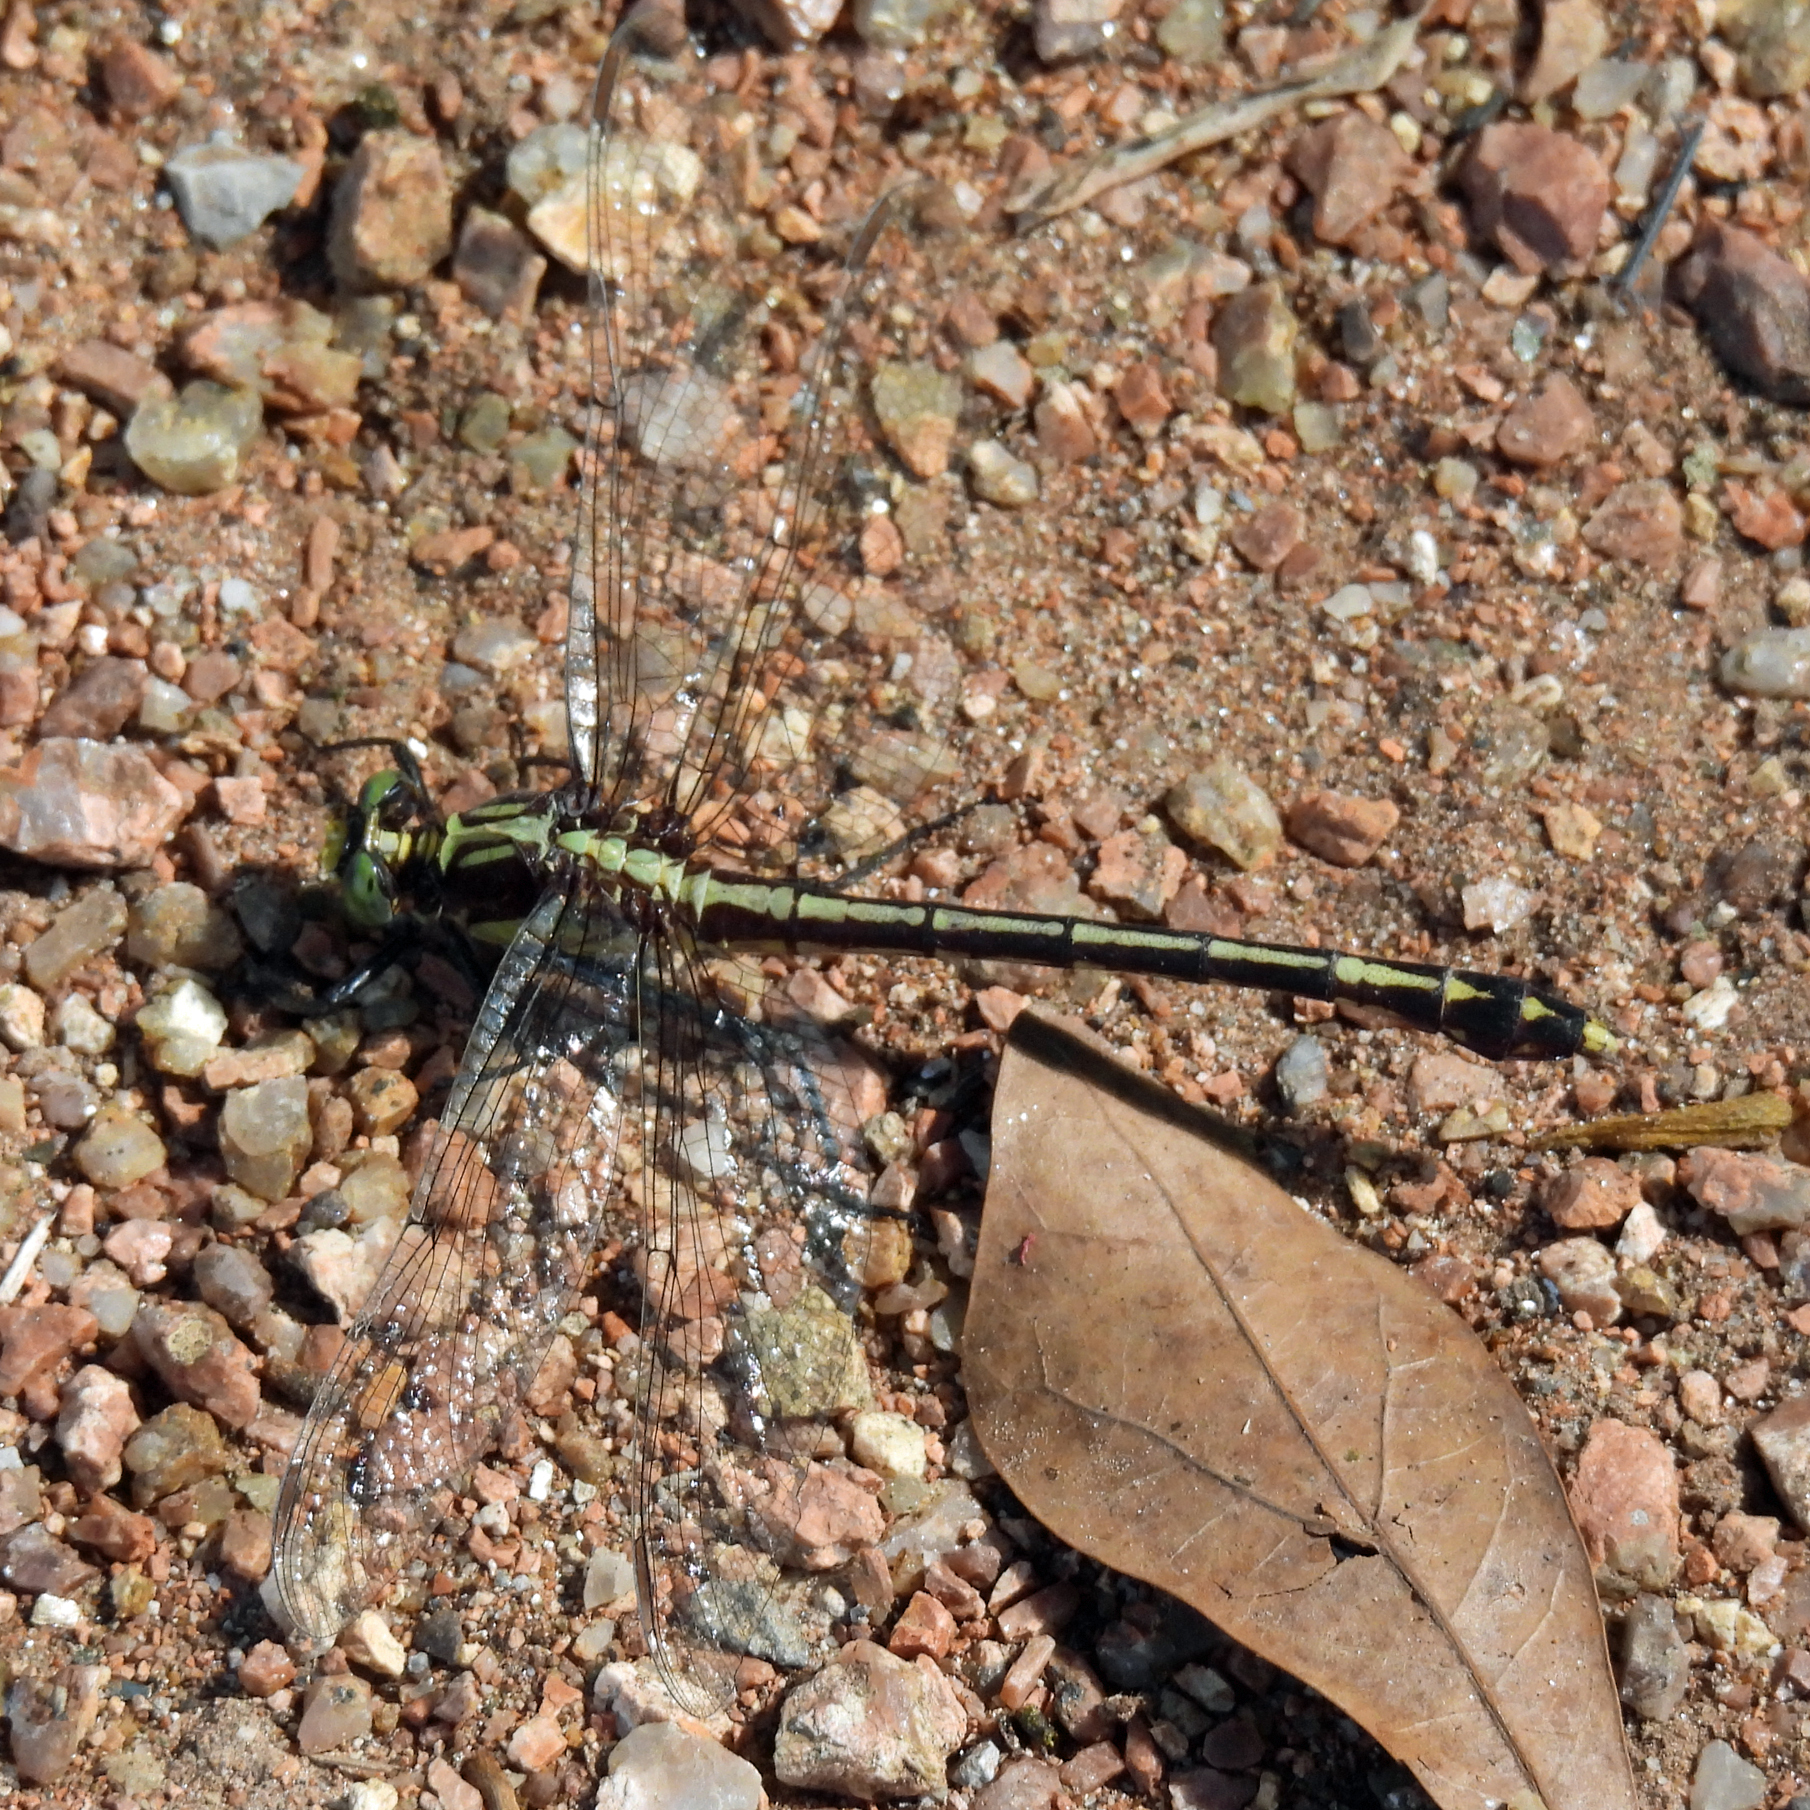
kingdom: Animalia
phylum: Arthropoda
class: Insecta
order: Odonata
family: Gomphidae
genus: Dromogomphus
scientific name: Dromogomphus spinosus
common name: Black-shouldered spinyleg
